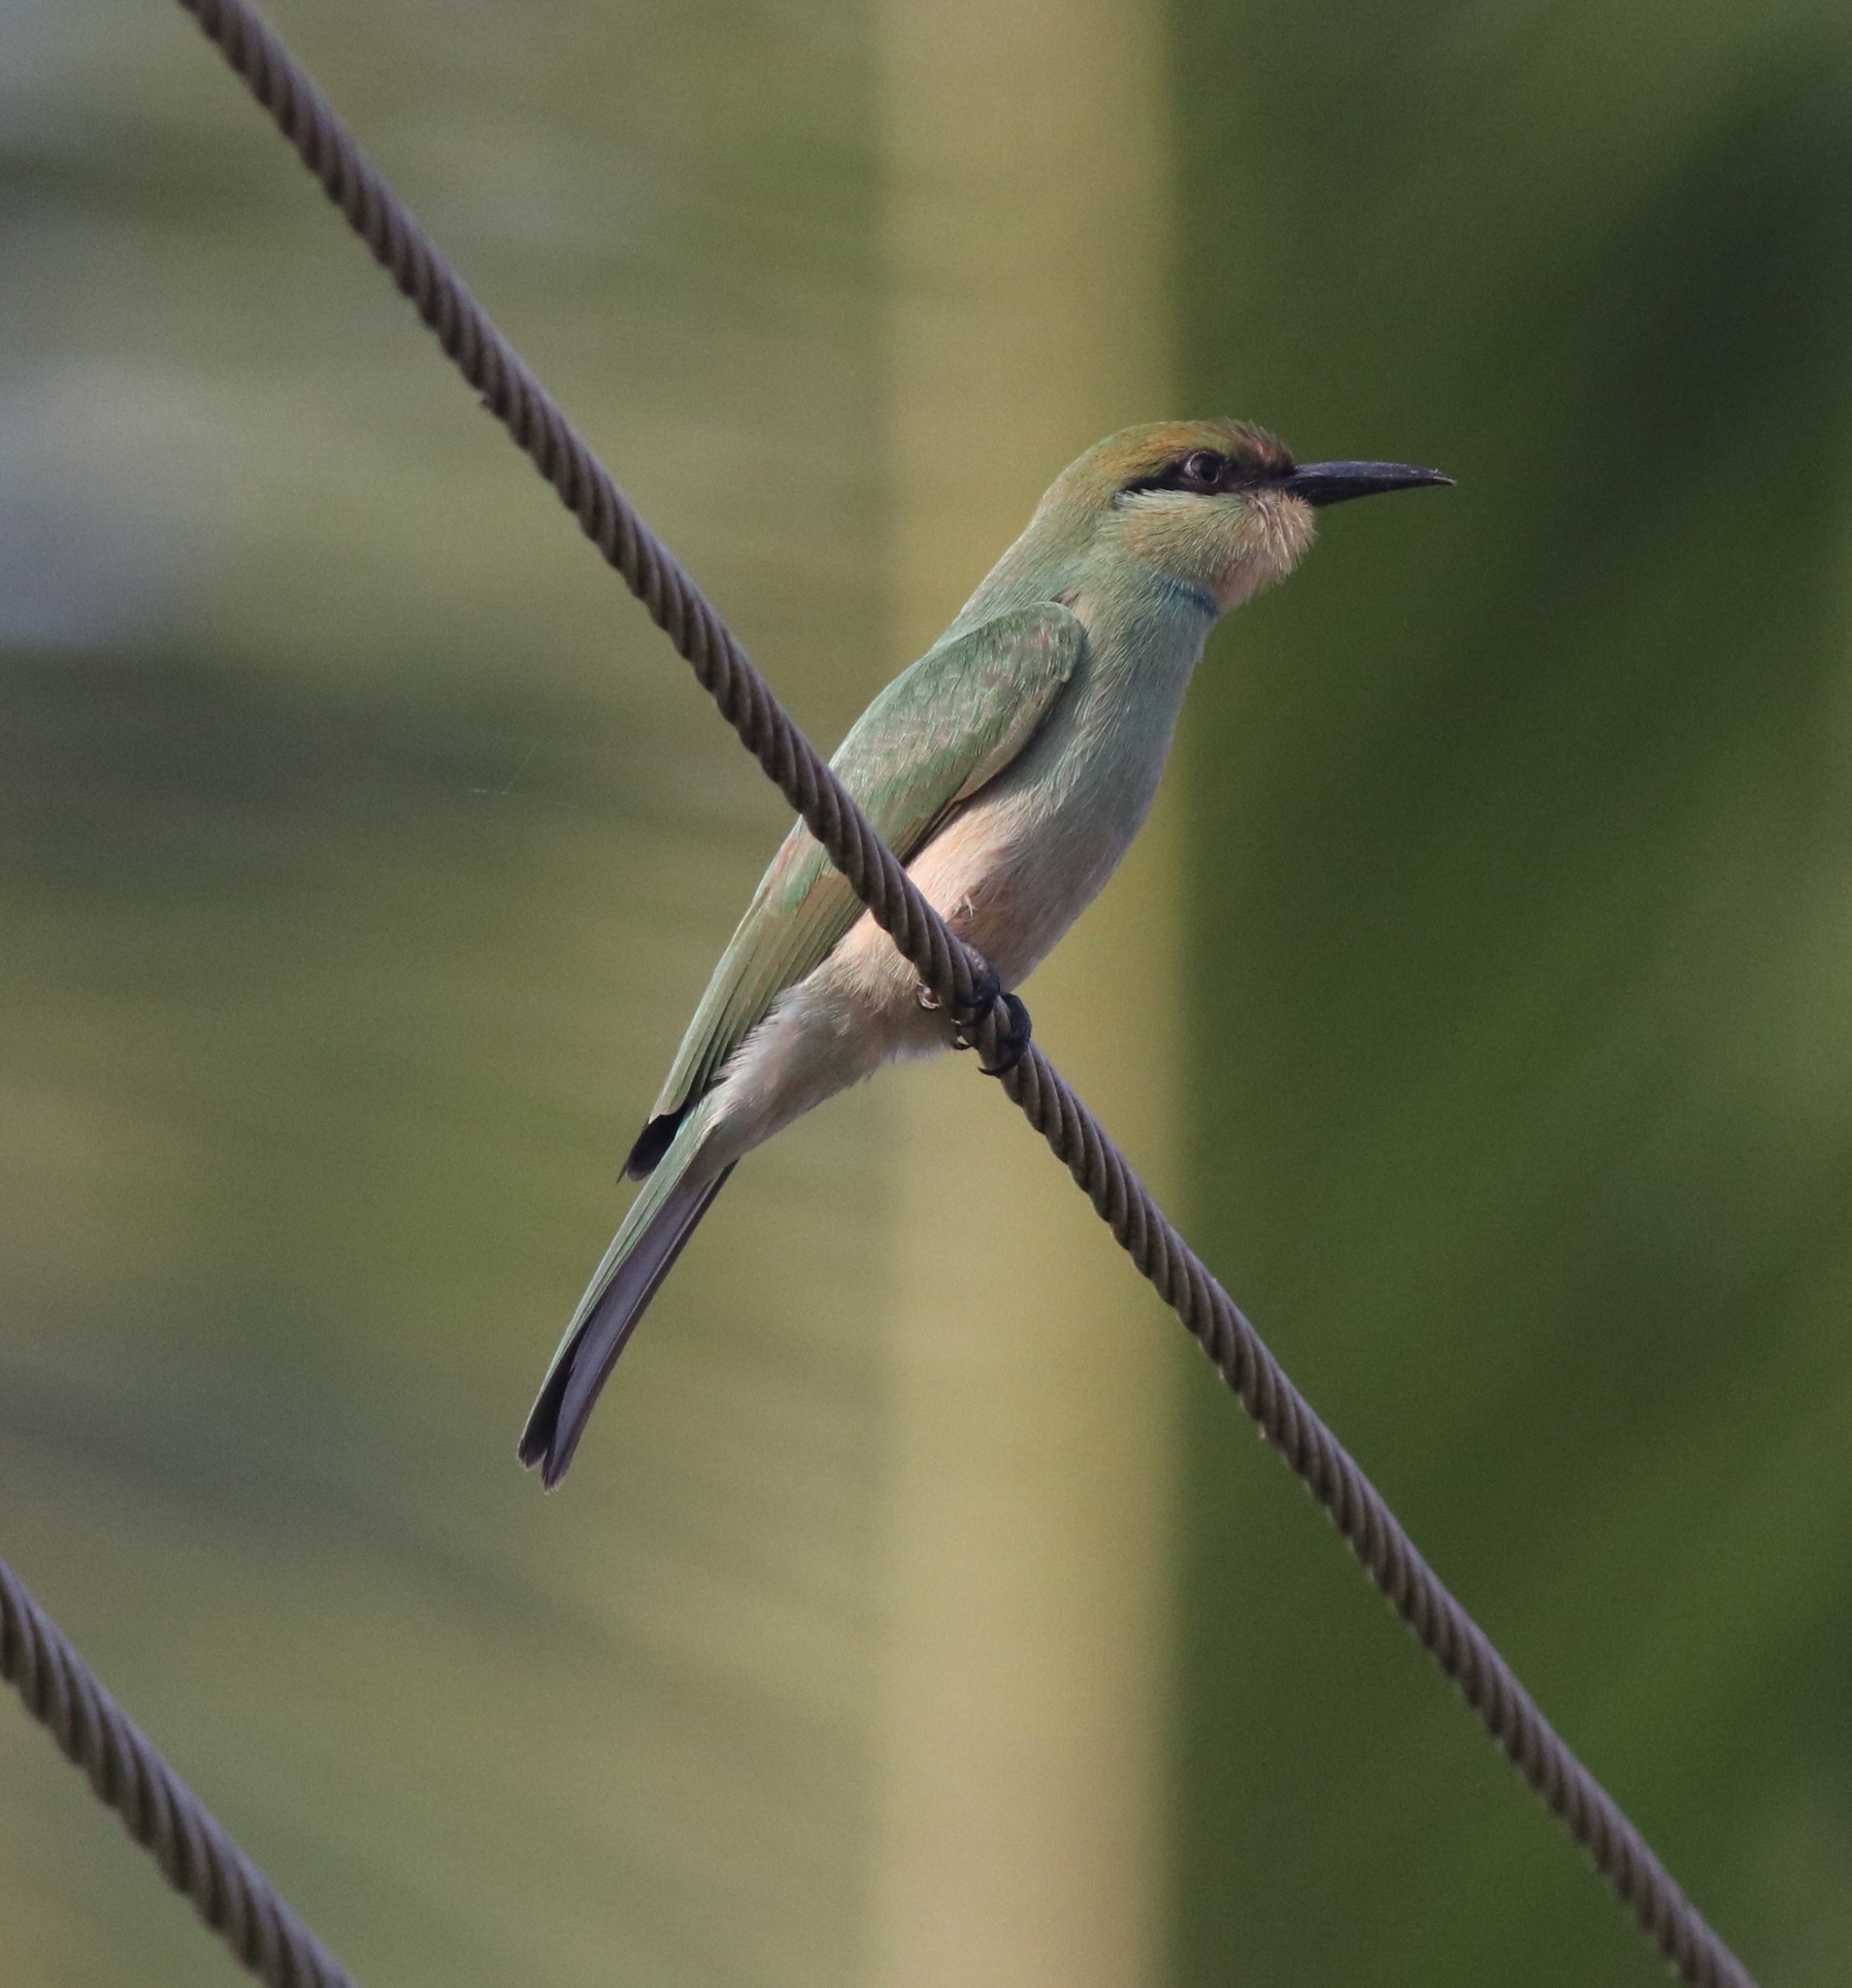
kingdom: Animalia
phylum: Chordata
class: Aves
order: Coraciiformes
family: Meropidae
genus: Merops
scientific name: Merops orientalis
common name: Green bee-eater
